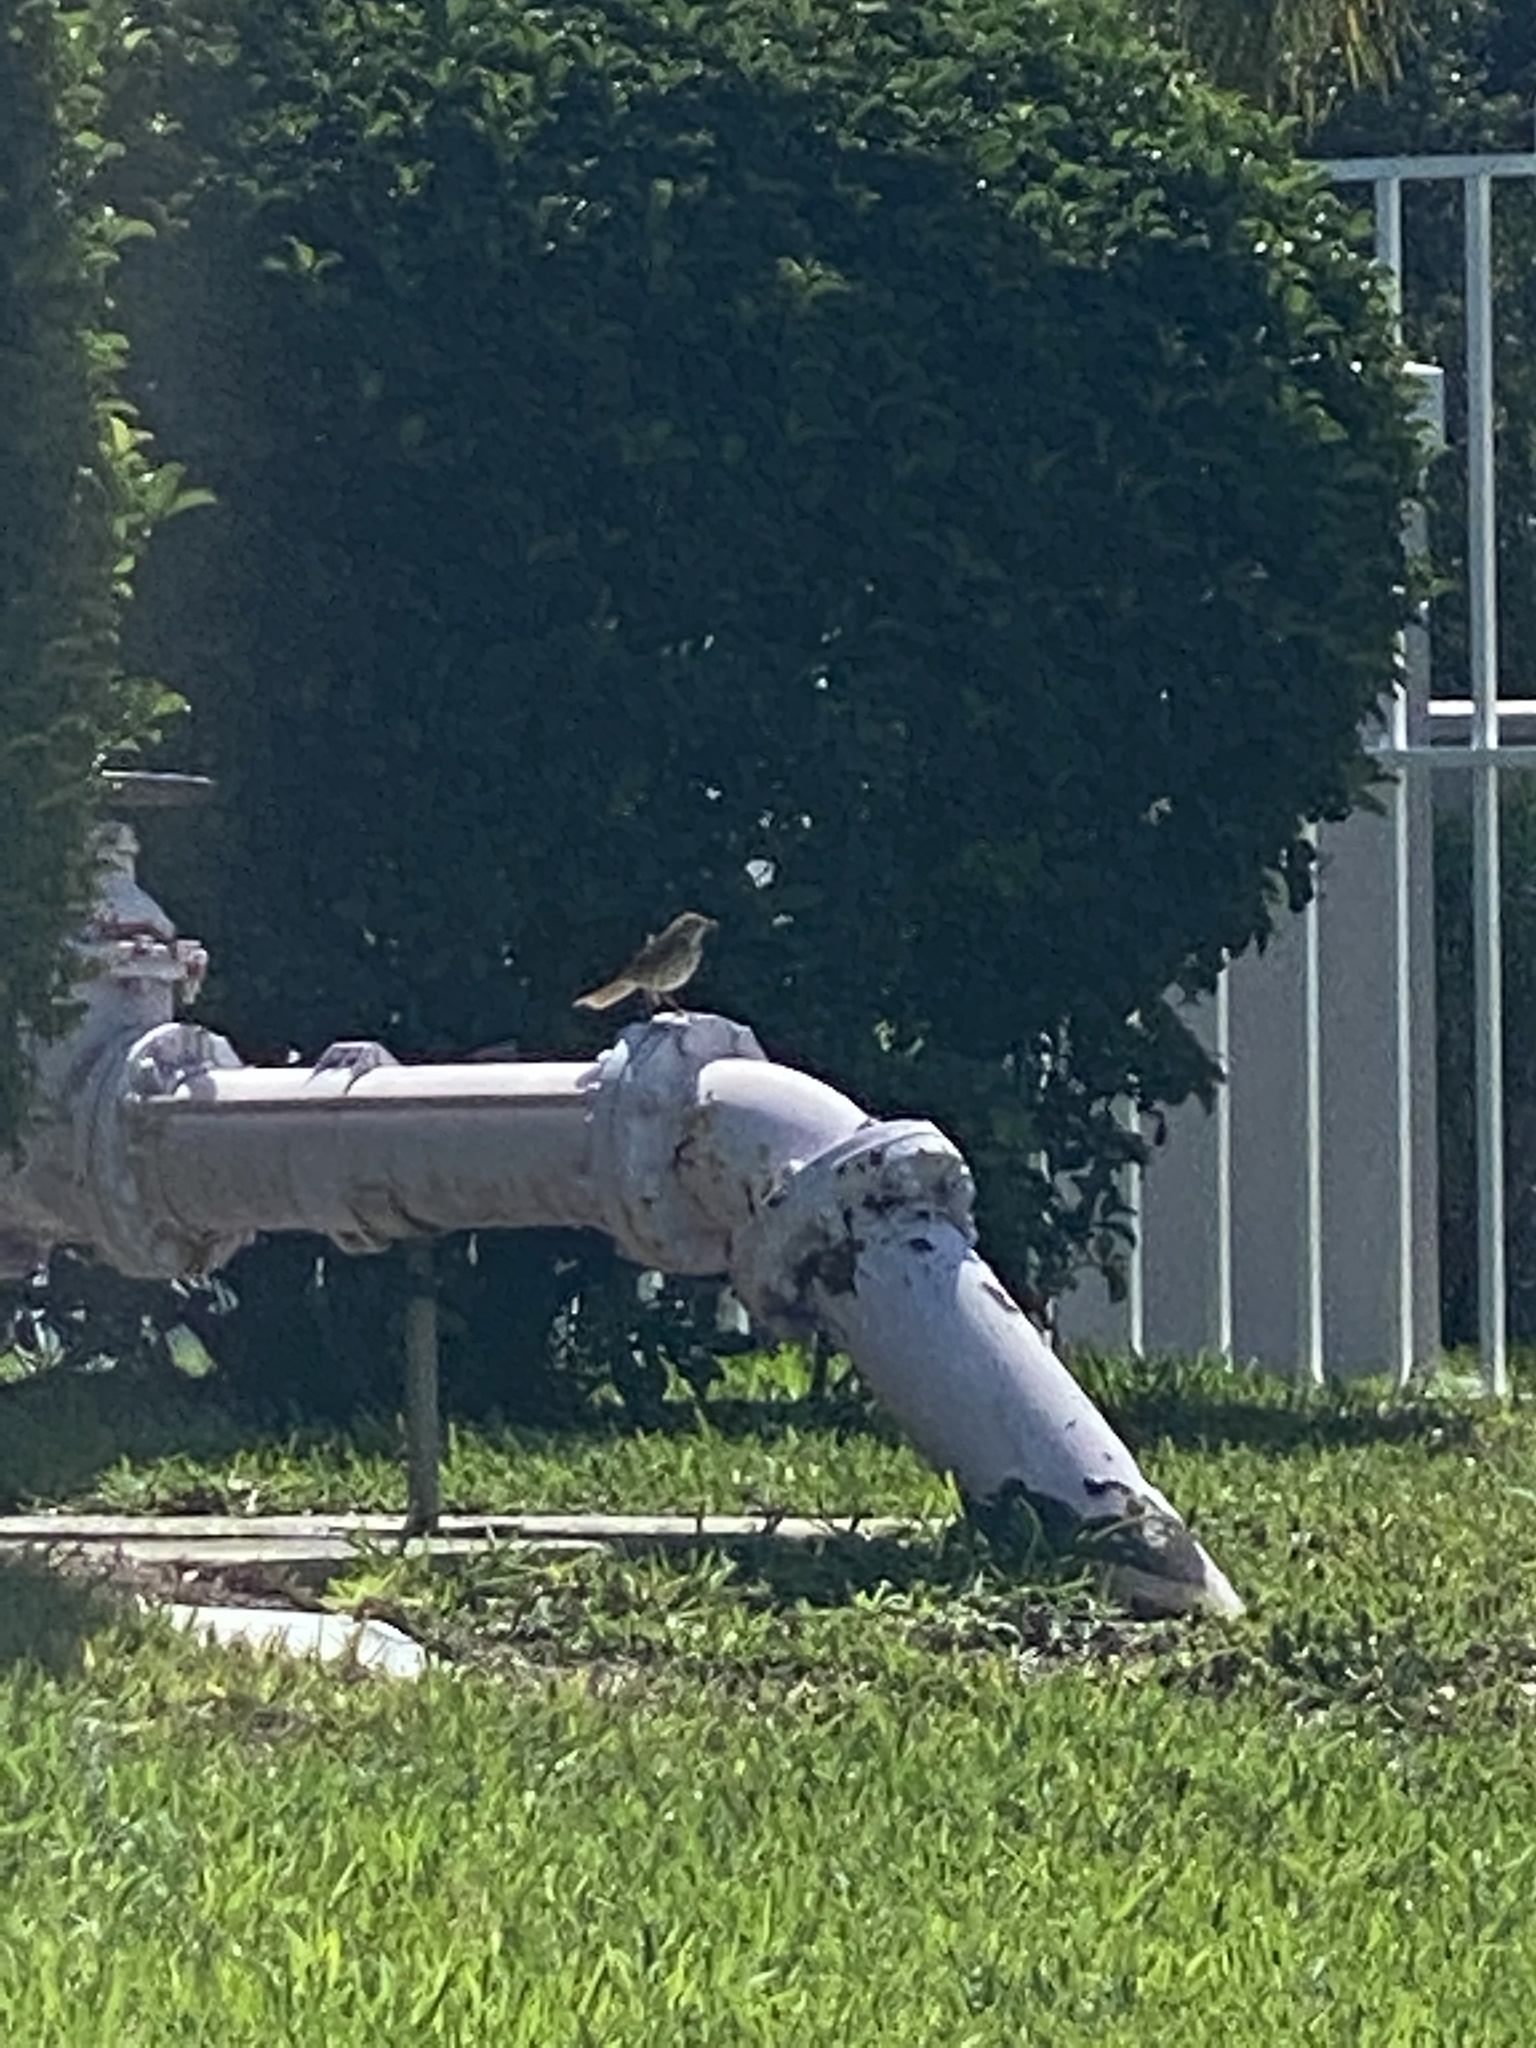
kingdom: Animalia
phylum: Chordata
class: Aves
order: Passeriformes
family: Mimidae
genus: Mimus
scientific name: Mimus polyglottos
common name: Northern mockingbird
